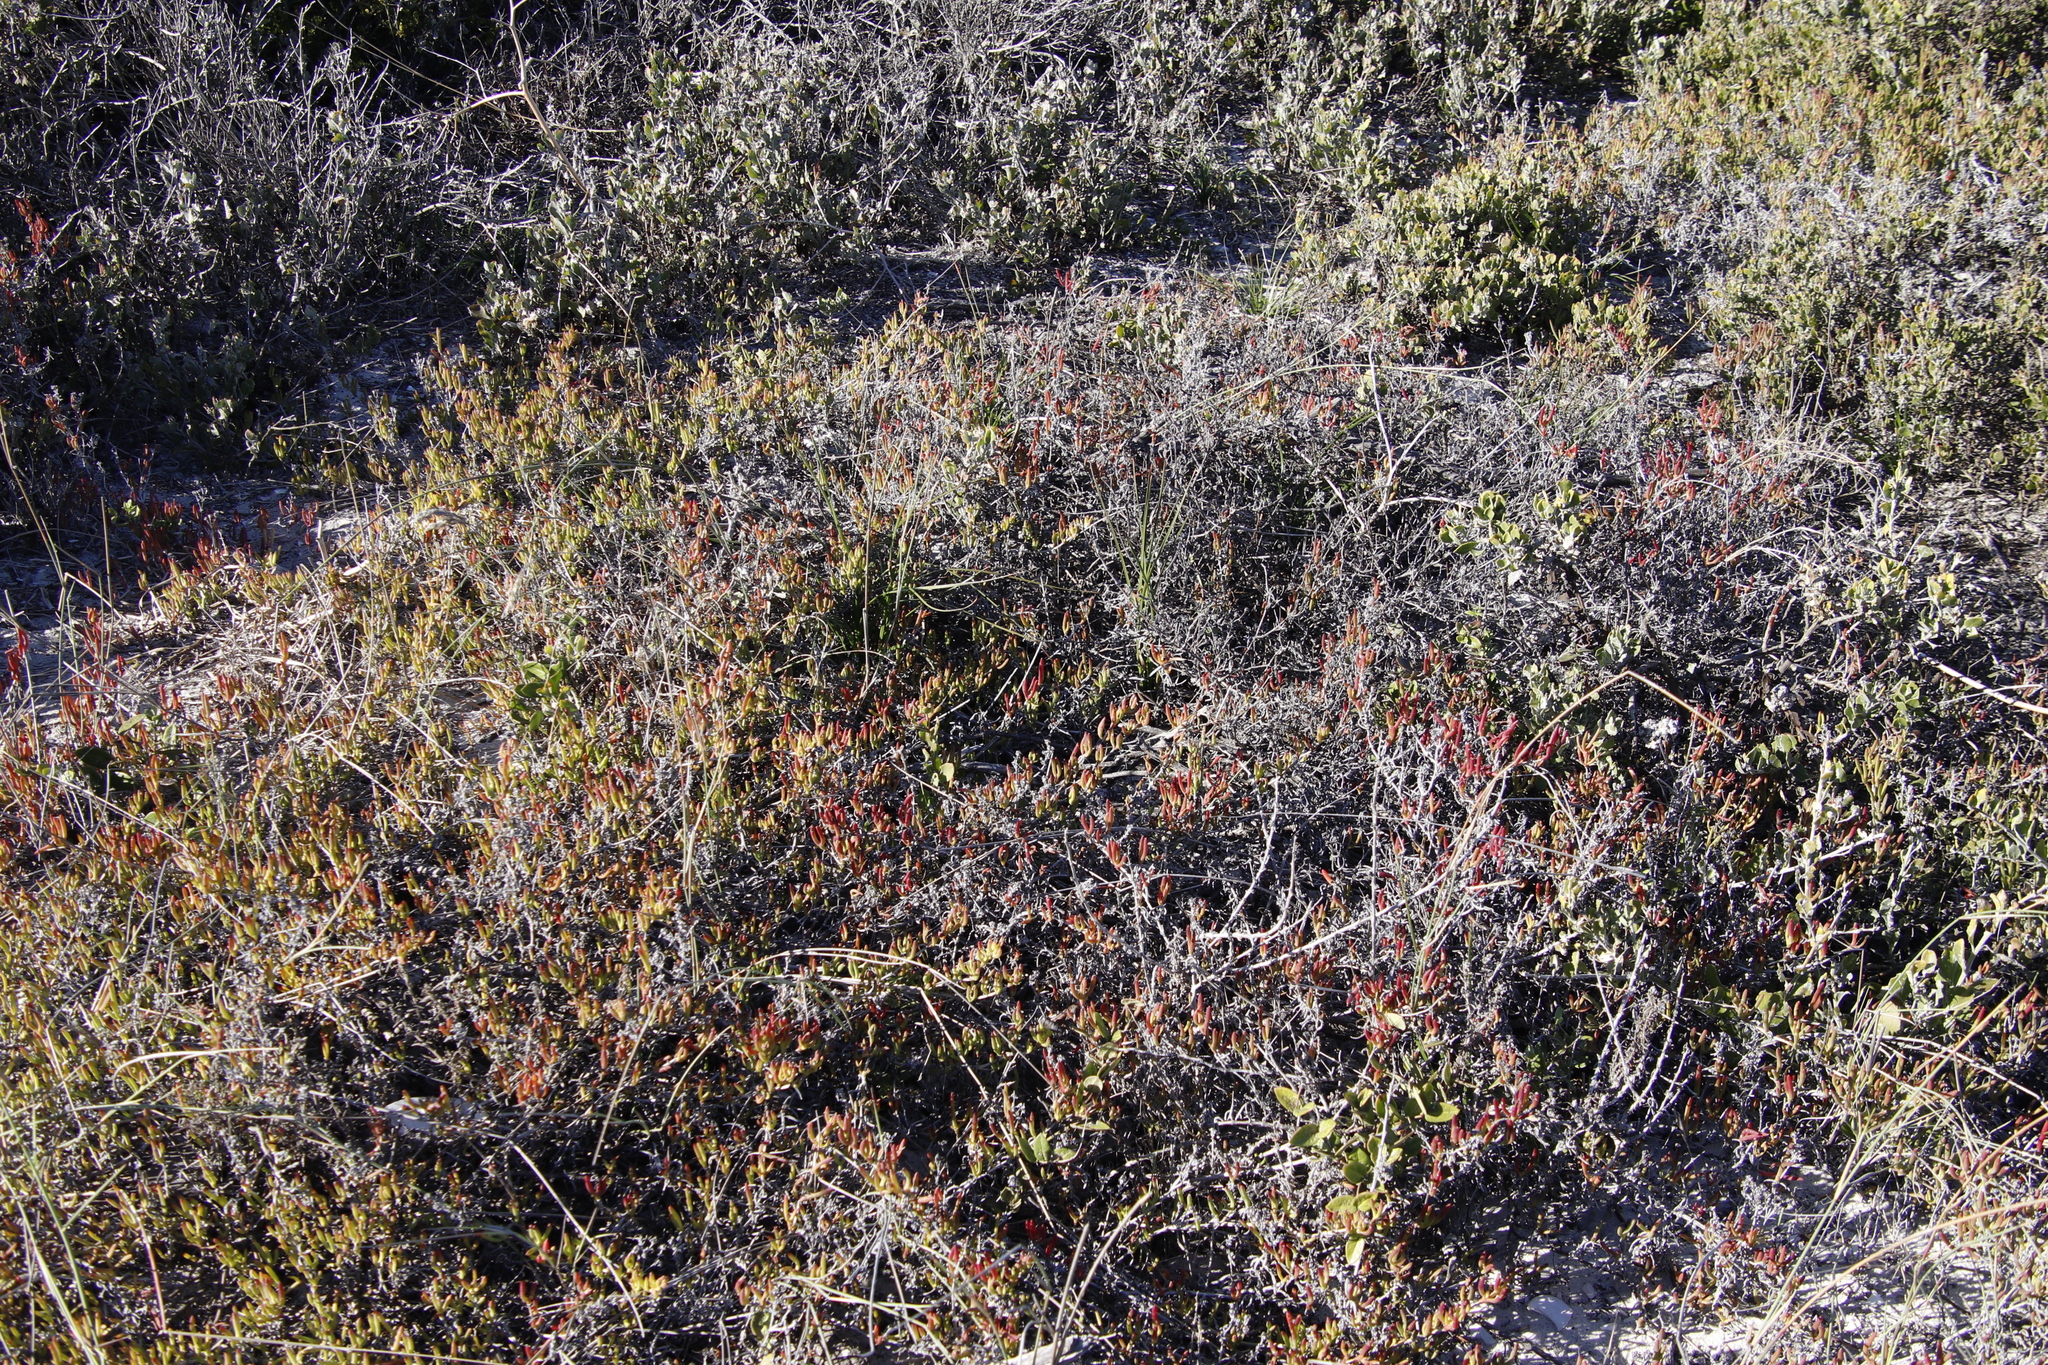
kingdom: Plantae
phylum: Tracheophyta
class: Magnoliopsida
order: Caryophyllales
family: Aizoaceae
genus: Ruschia
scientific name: Ruschia macowanii
